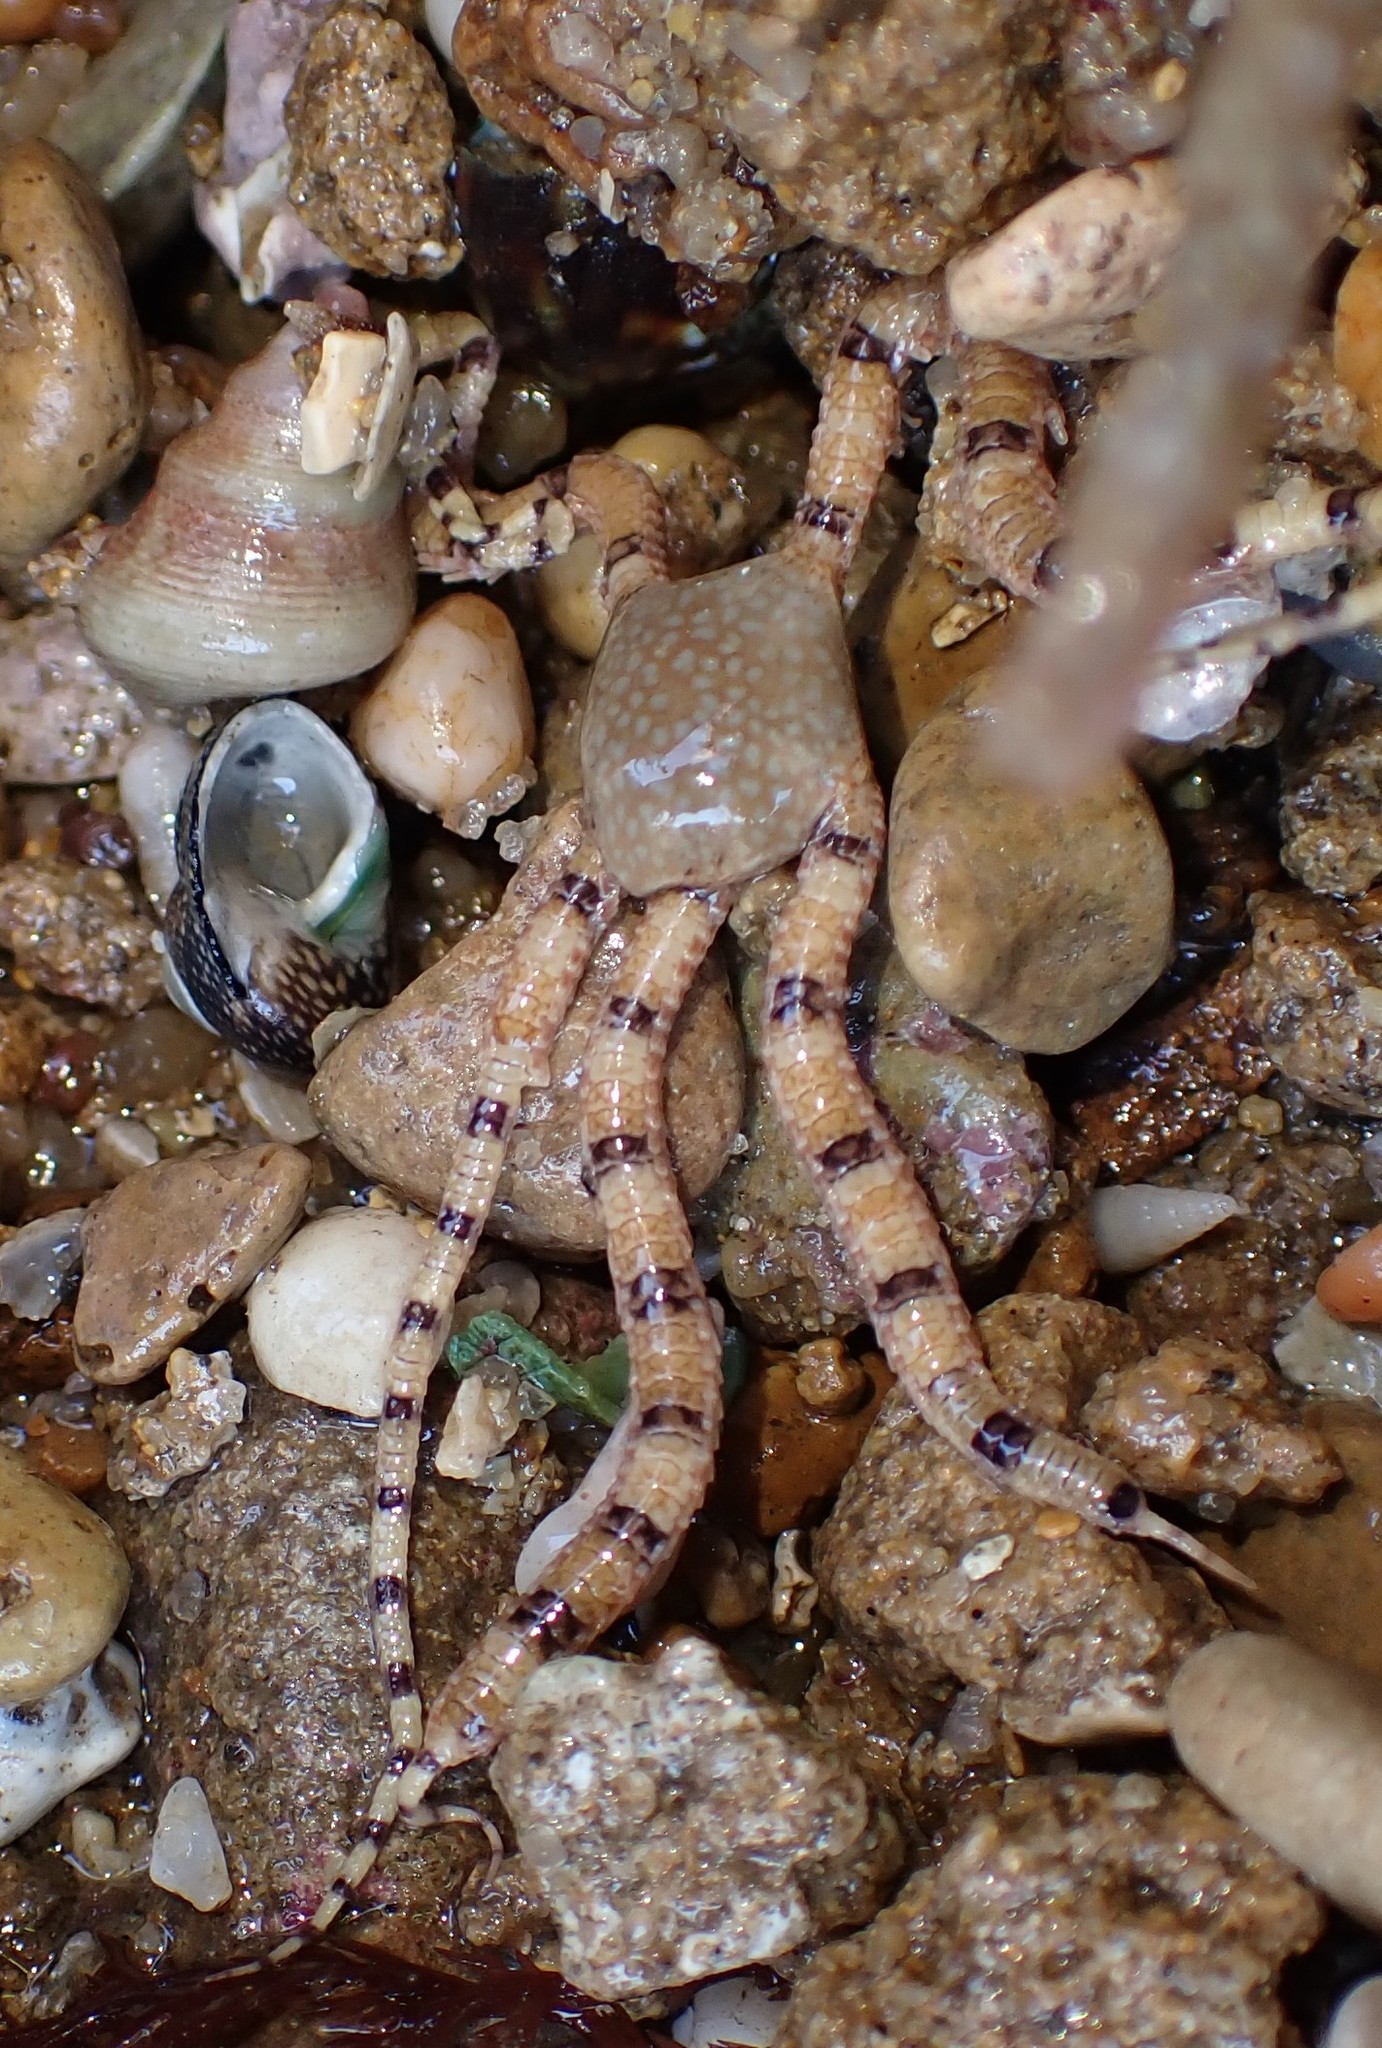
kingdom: Animalia
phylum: Echinodermata
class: Ophiuroidea
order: Amphilepidida
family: Ophionereididae
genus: Ophionereis
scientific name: Ophionereis schayeri
